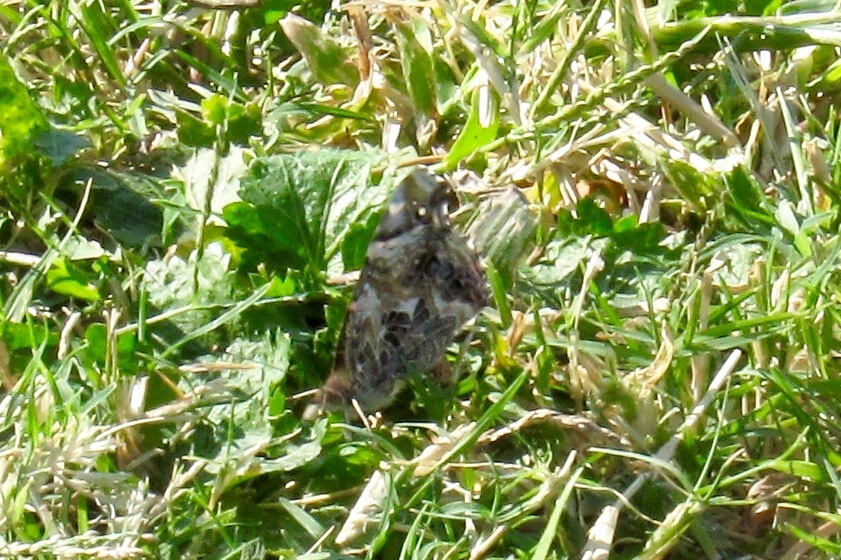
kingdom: Animalia
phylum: Arthropoda
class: Insecta
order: Lepidoptera
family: Nymphalidae
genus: Vanessa
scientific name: Vanessa annabella
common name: West coast lady
